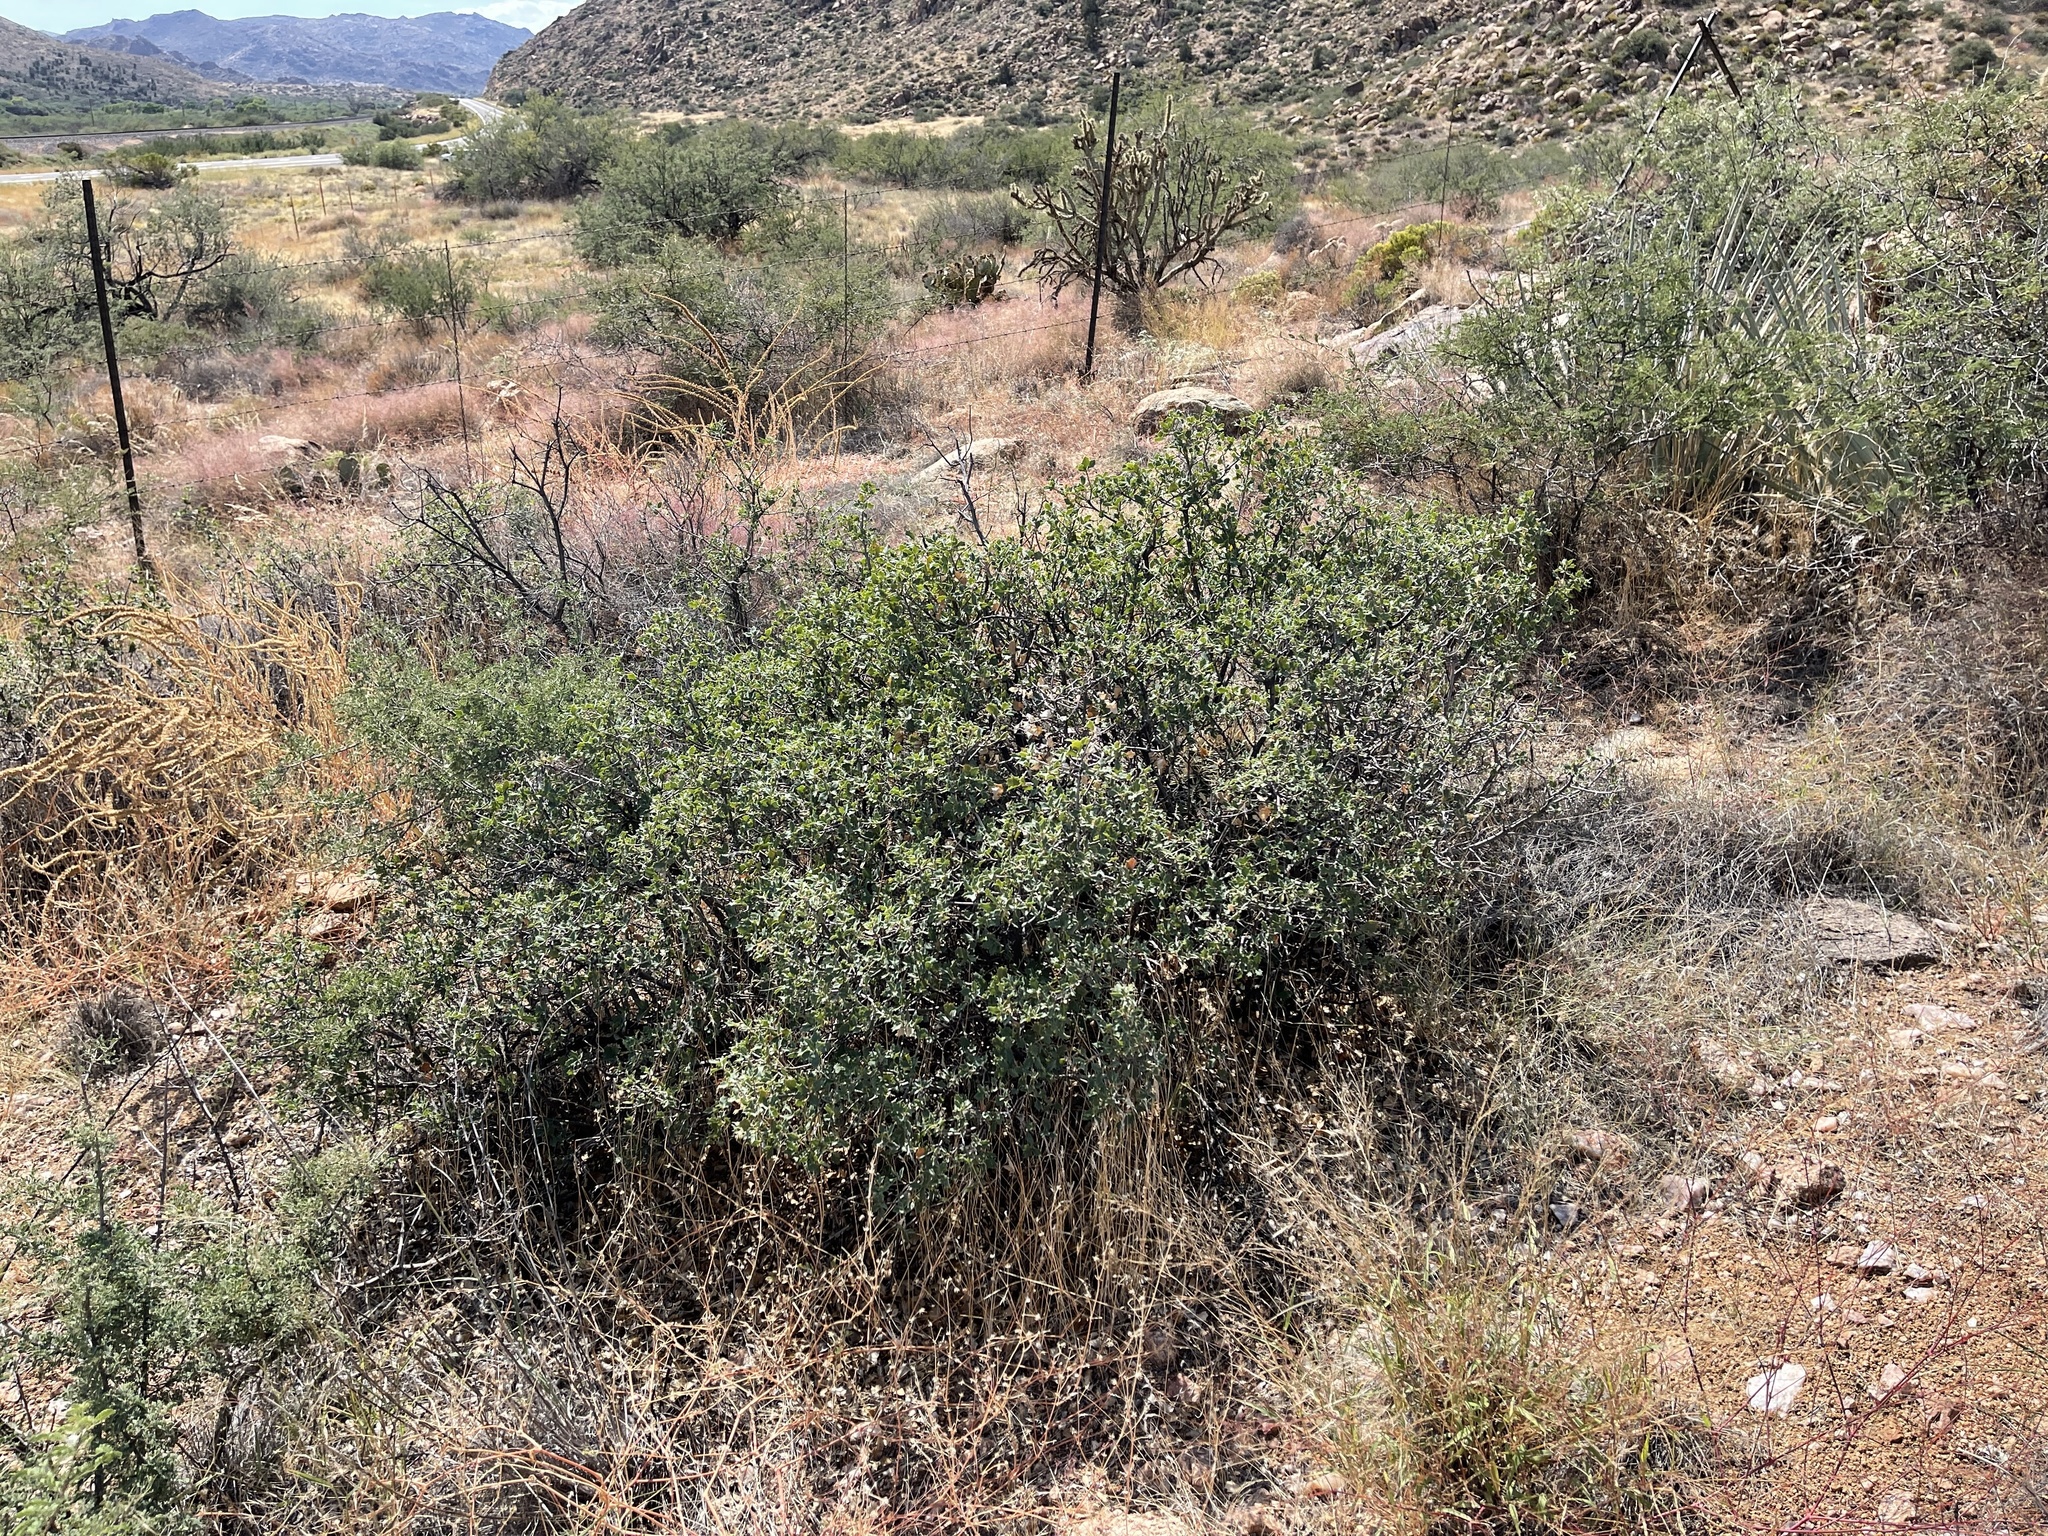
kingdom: Plantae
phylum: Tracheophyta
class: Magnoliopsida
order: Fagales
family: Fagaceae
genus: Quercus
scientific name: Quercus turbinella
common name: Sonoran scrub oak
